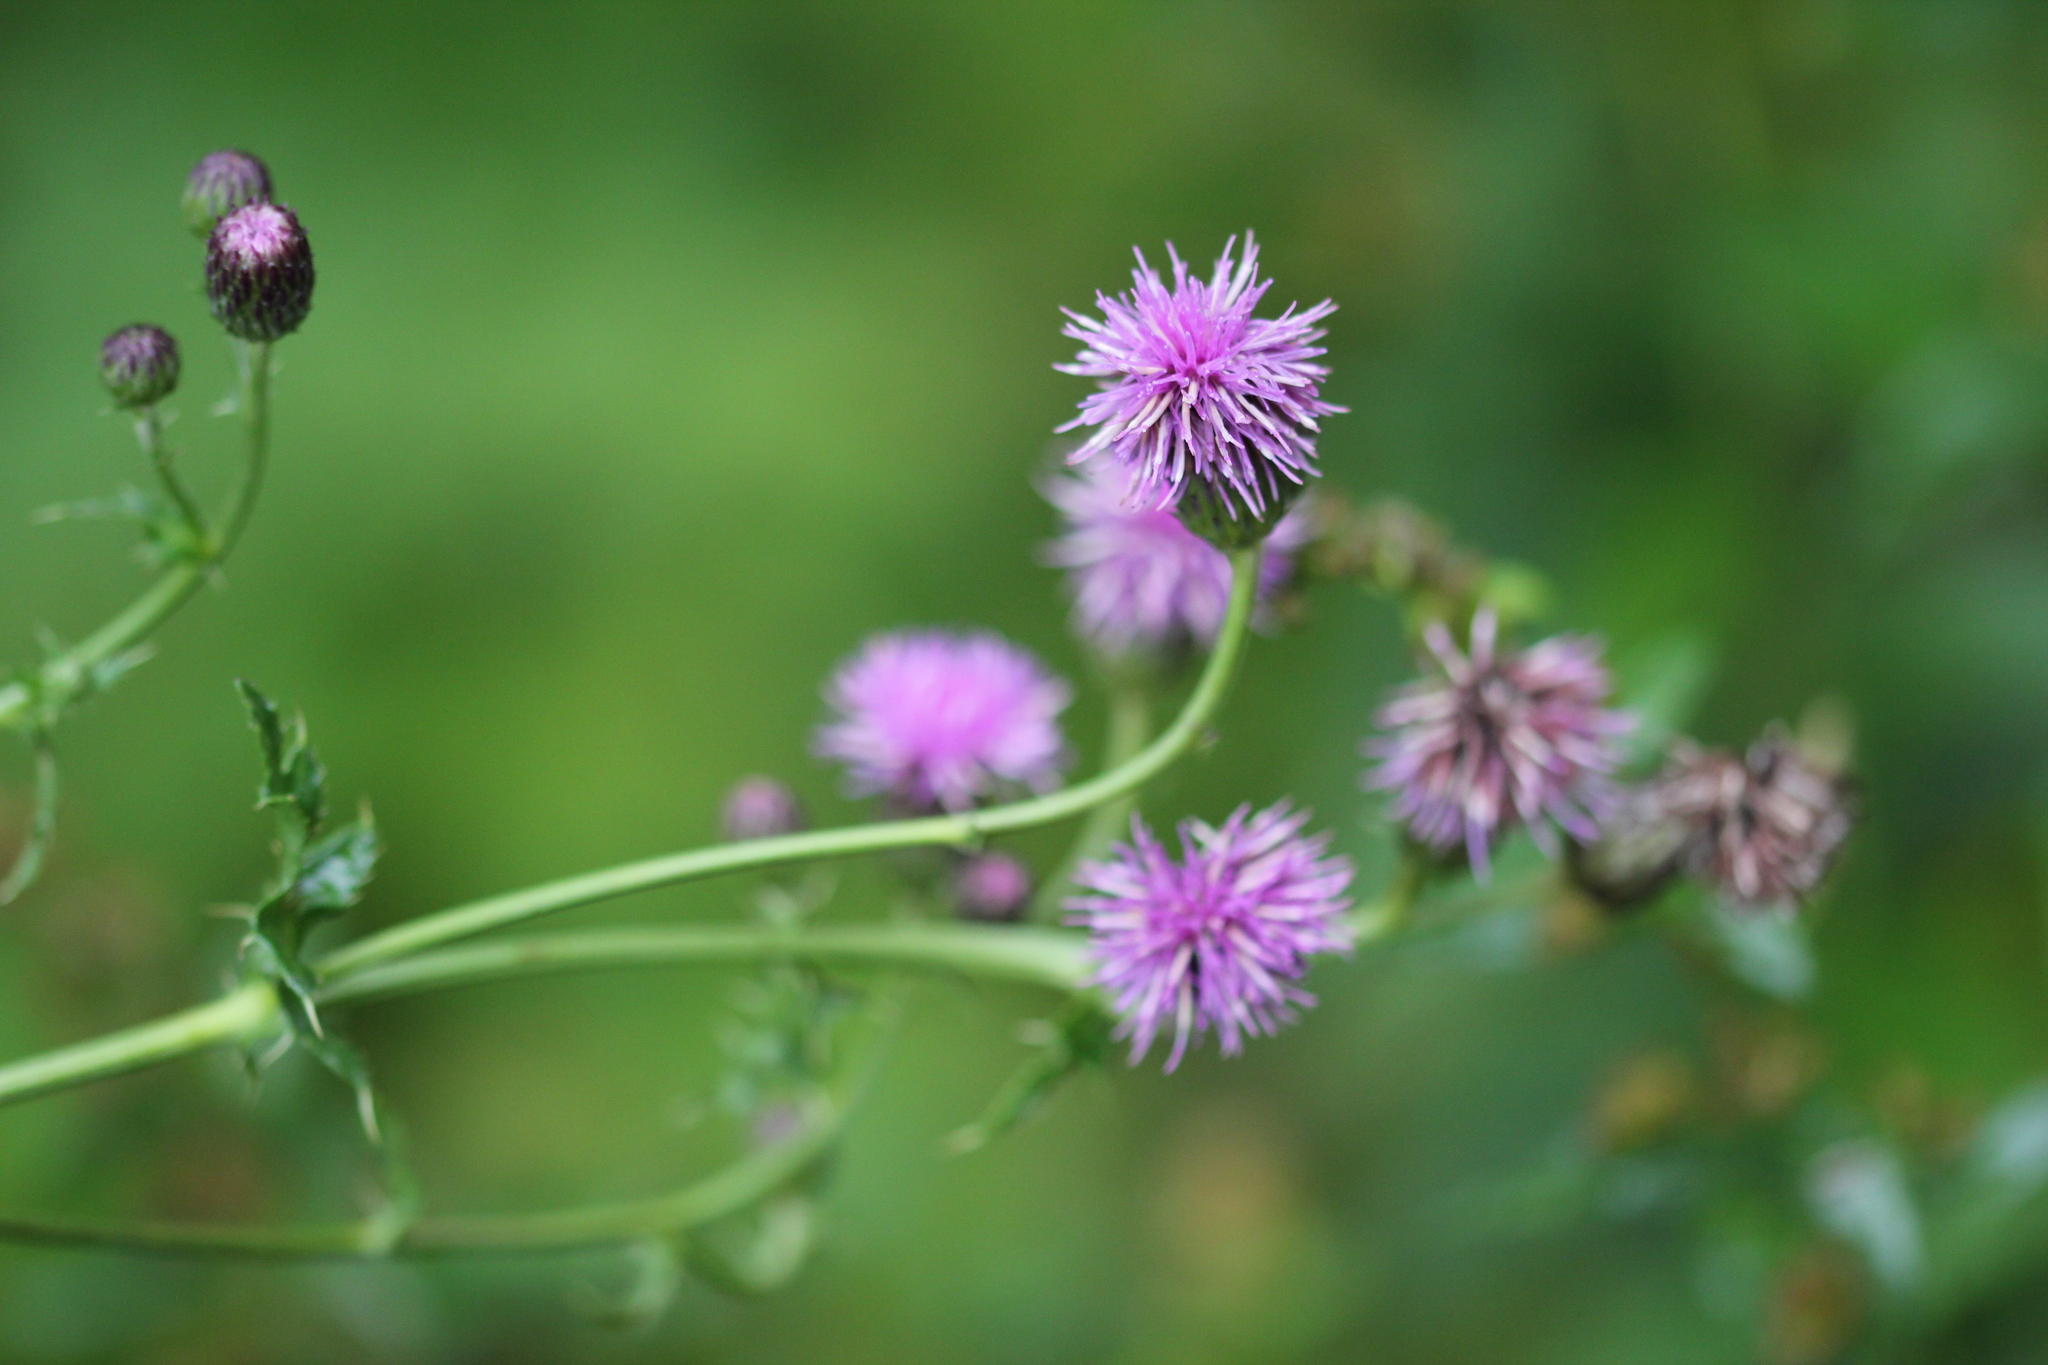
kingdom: Plantae
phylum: Tracheophyta
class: Magnoliopsida
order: Asterales
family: Asteraceae
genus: Cirsium
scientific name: Cirsium arvense
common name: Creeping thistle
